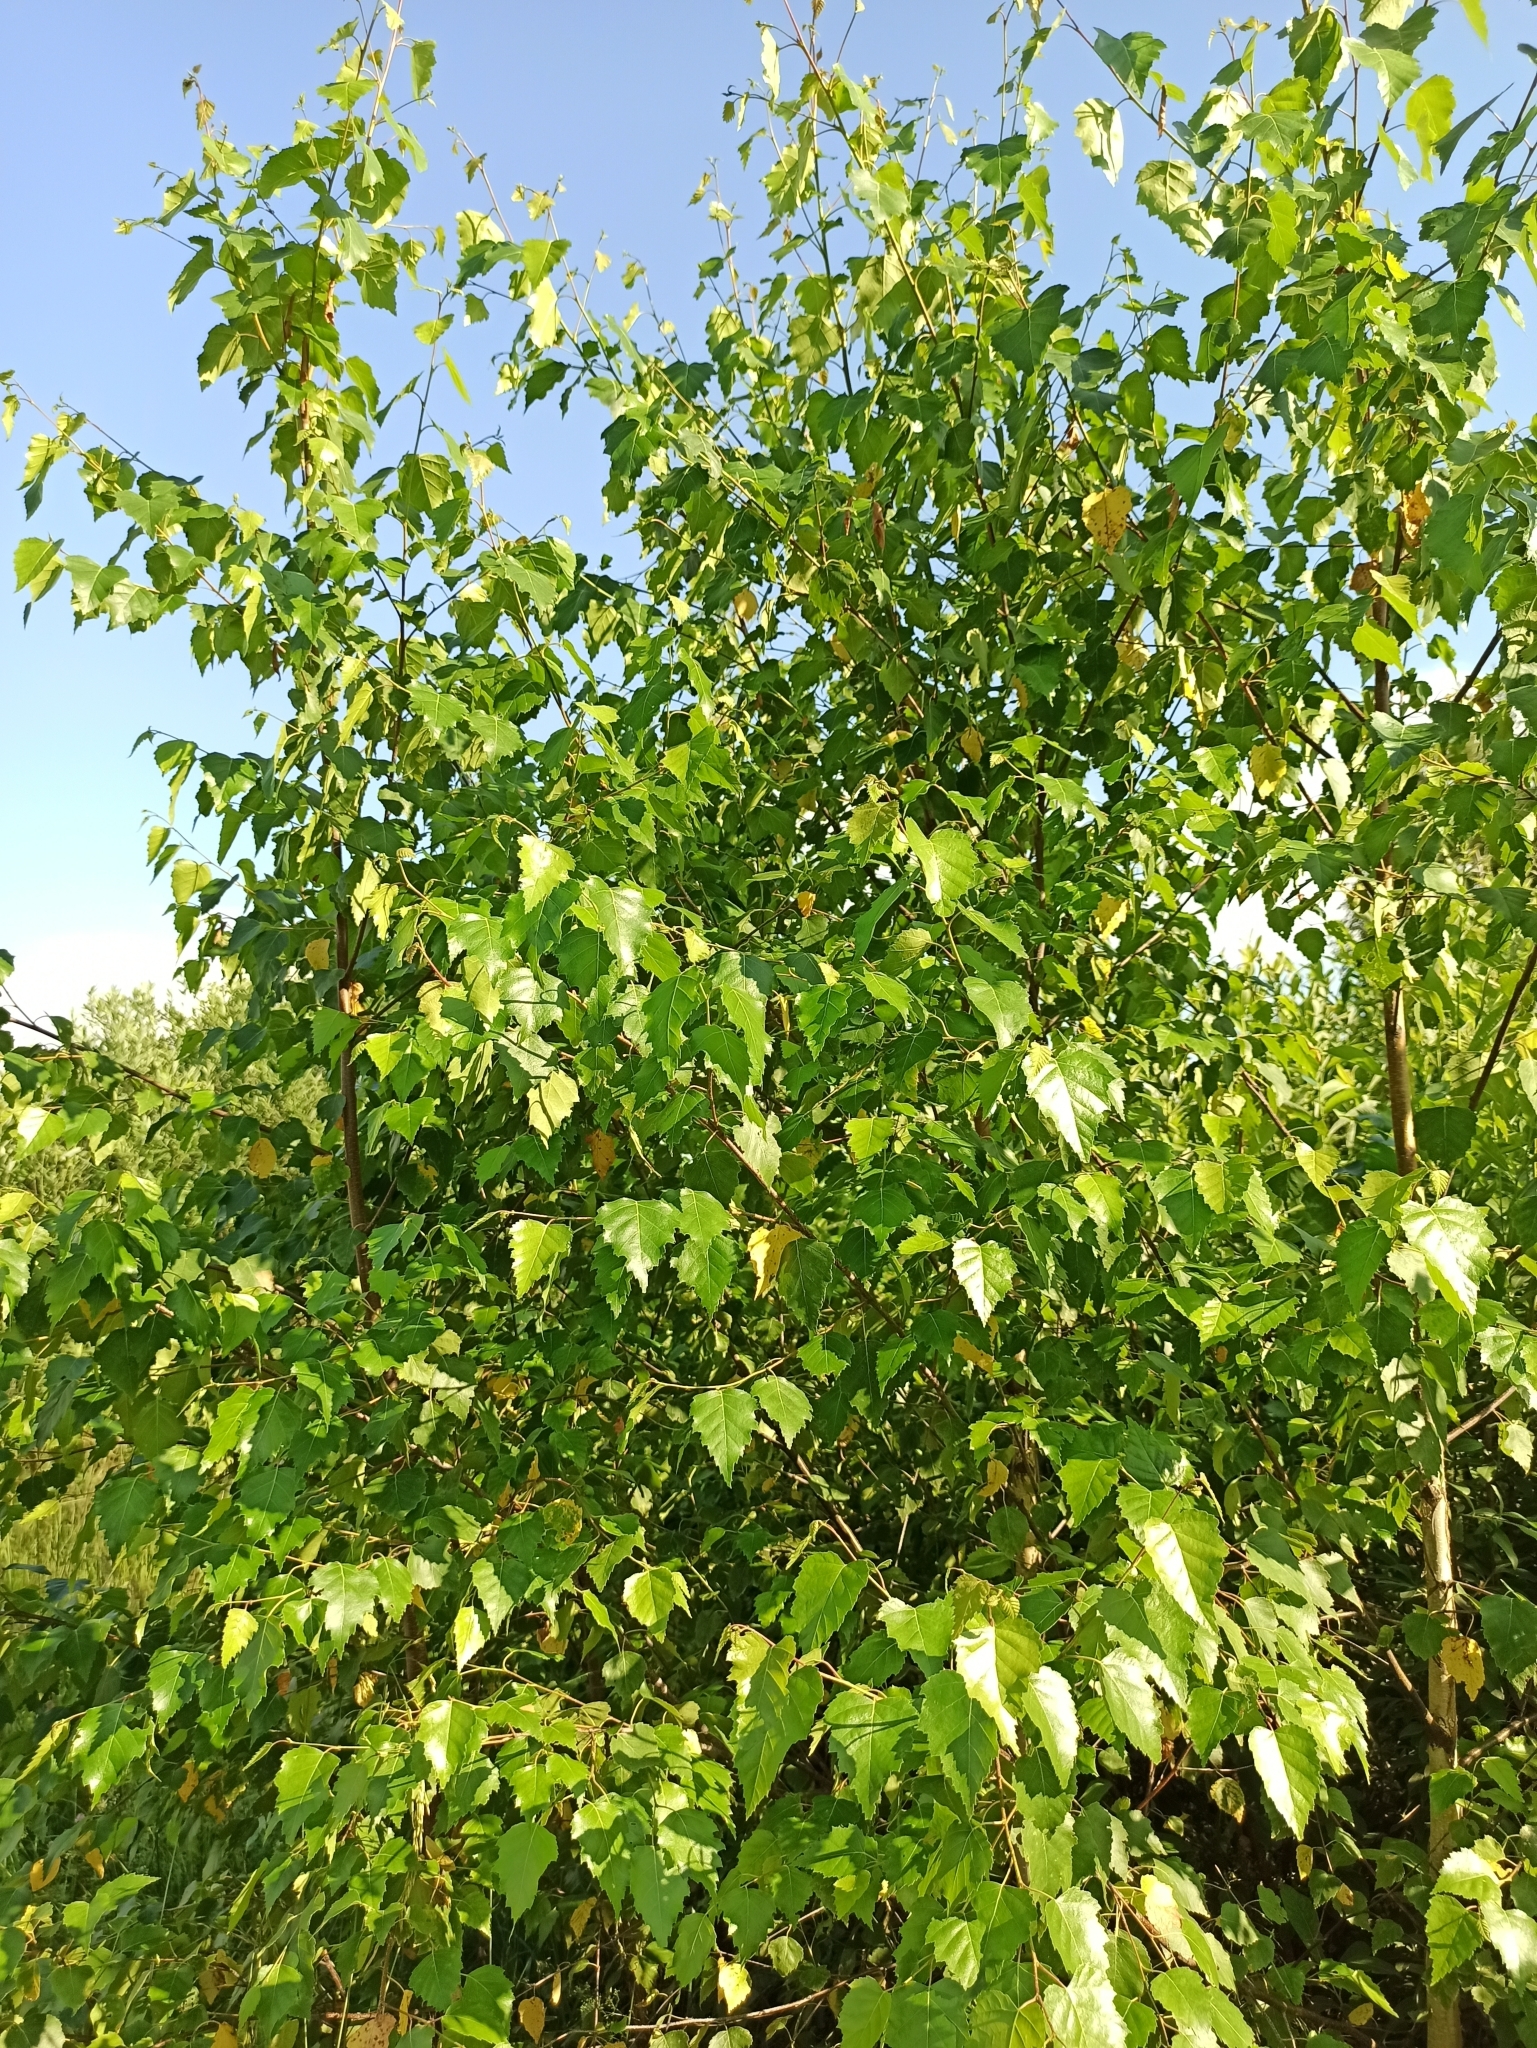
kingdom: Plantae
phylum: Tracheophyta
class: Magnoliopsida
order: Fagales
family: Betulaceae
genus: Betula
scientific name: Betula pendula
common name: Silver birch
